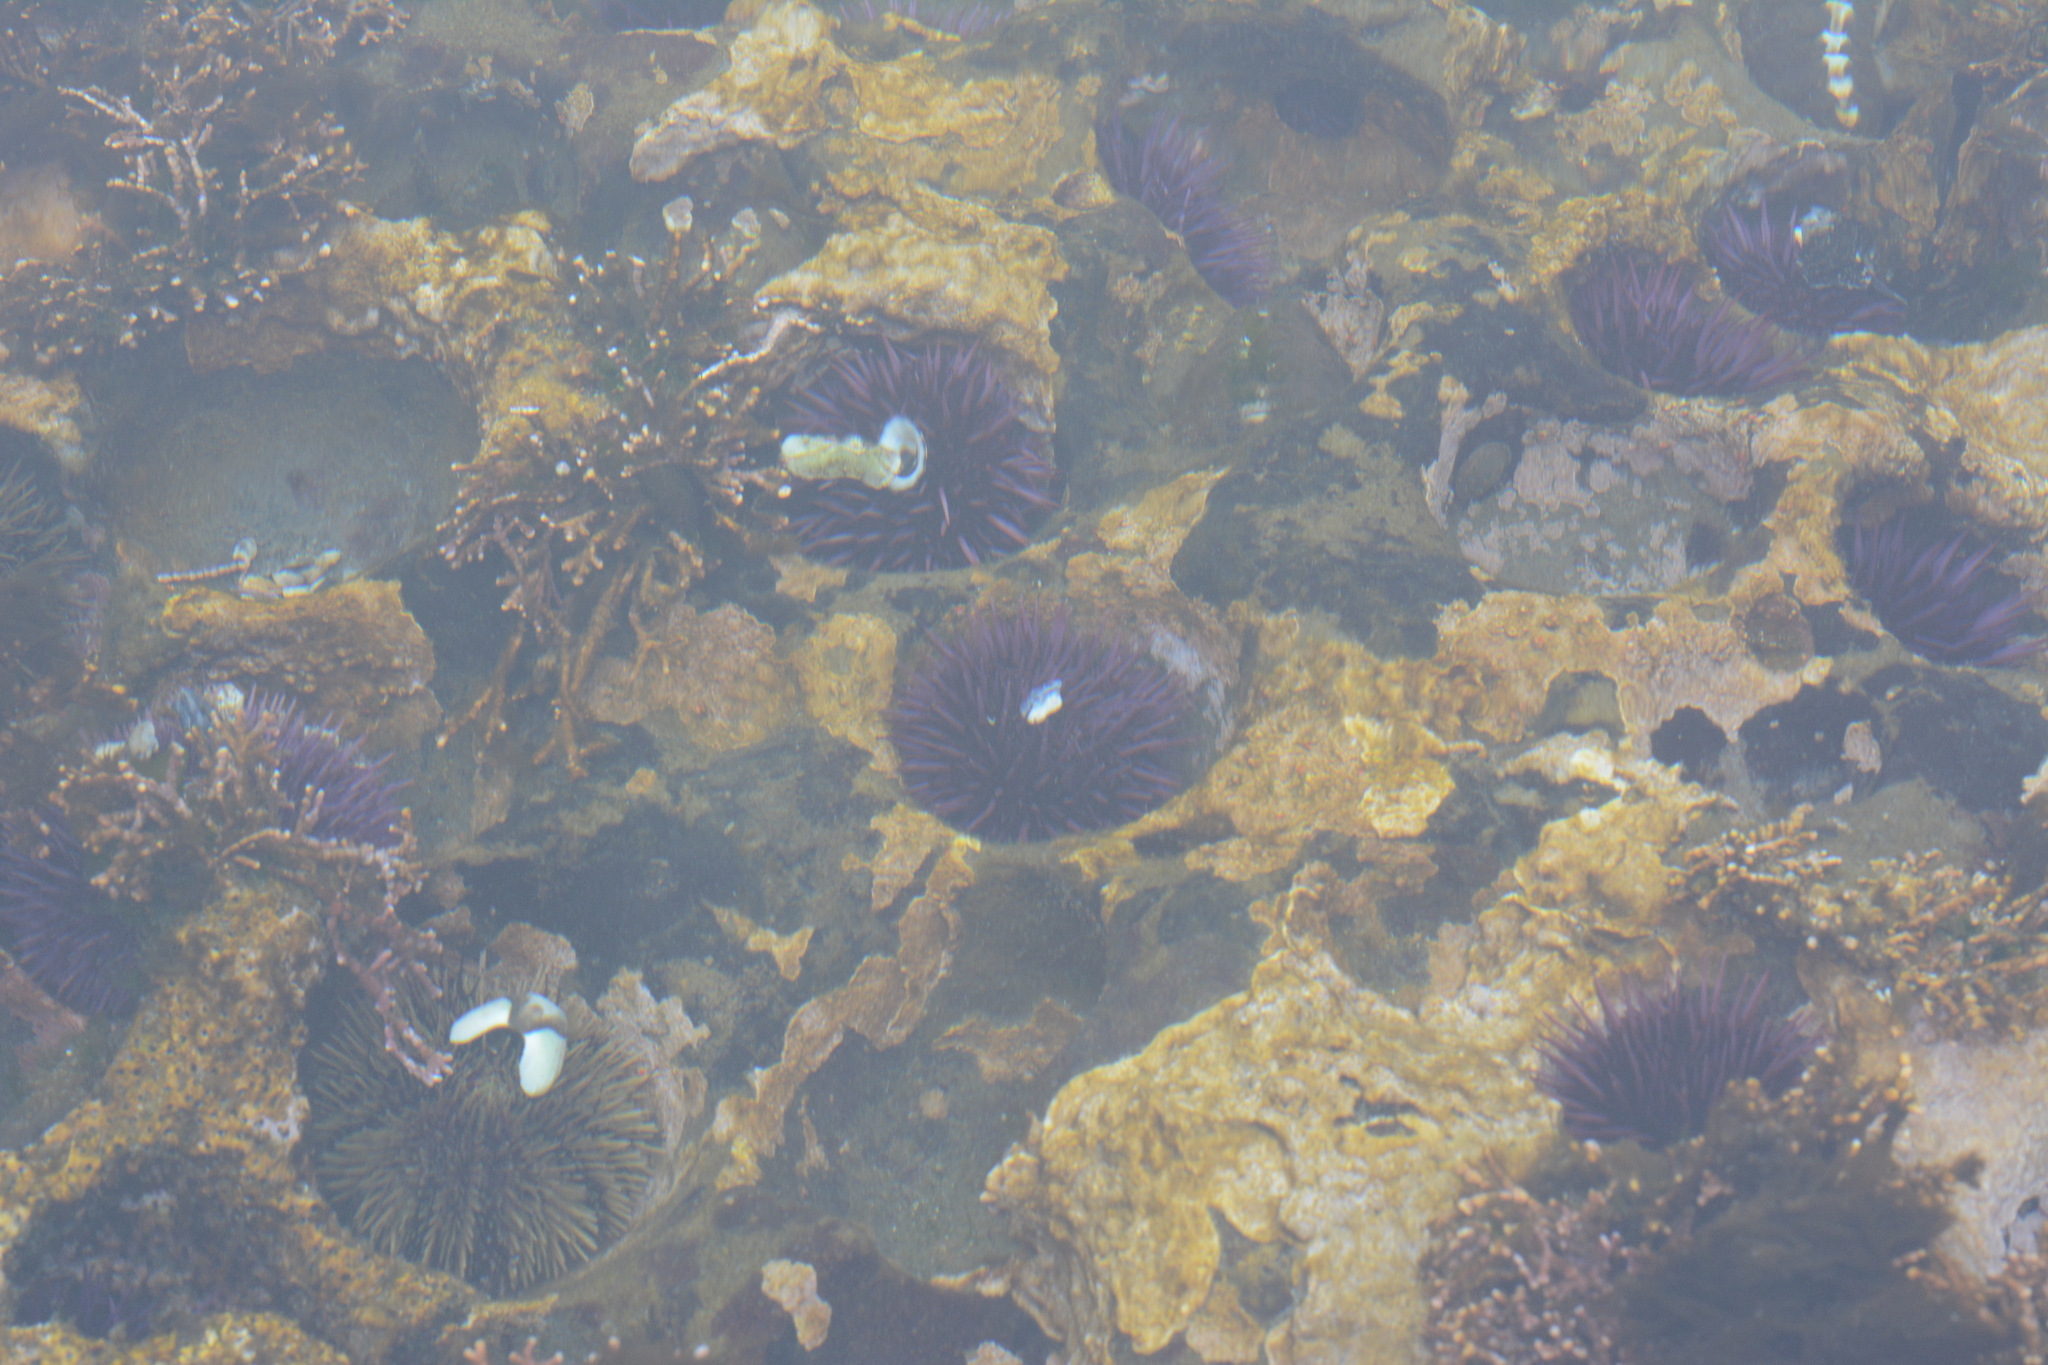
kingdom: Animalia
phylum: Echinodermata
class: Echinoidea
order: Camarodonta
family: Strongylocentrotidae
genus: Strongylocentrotus
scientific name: Strongylocentrotus purpuratus
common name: Purple sea urchin
